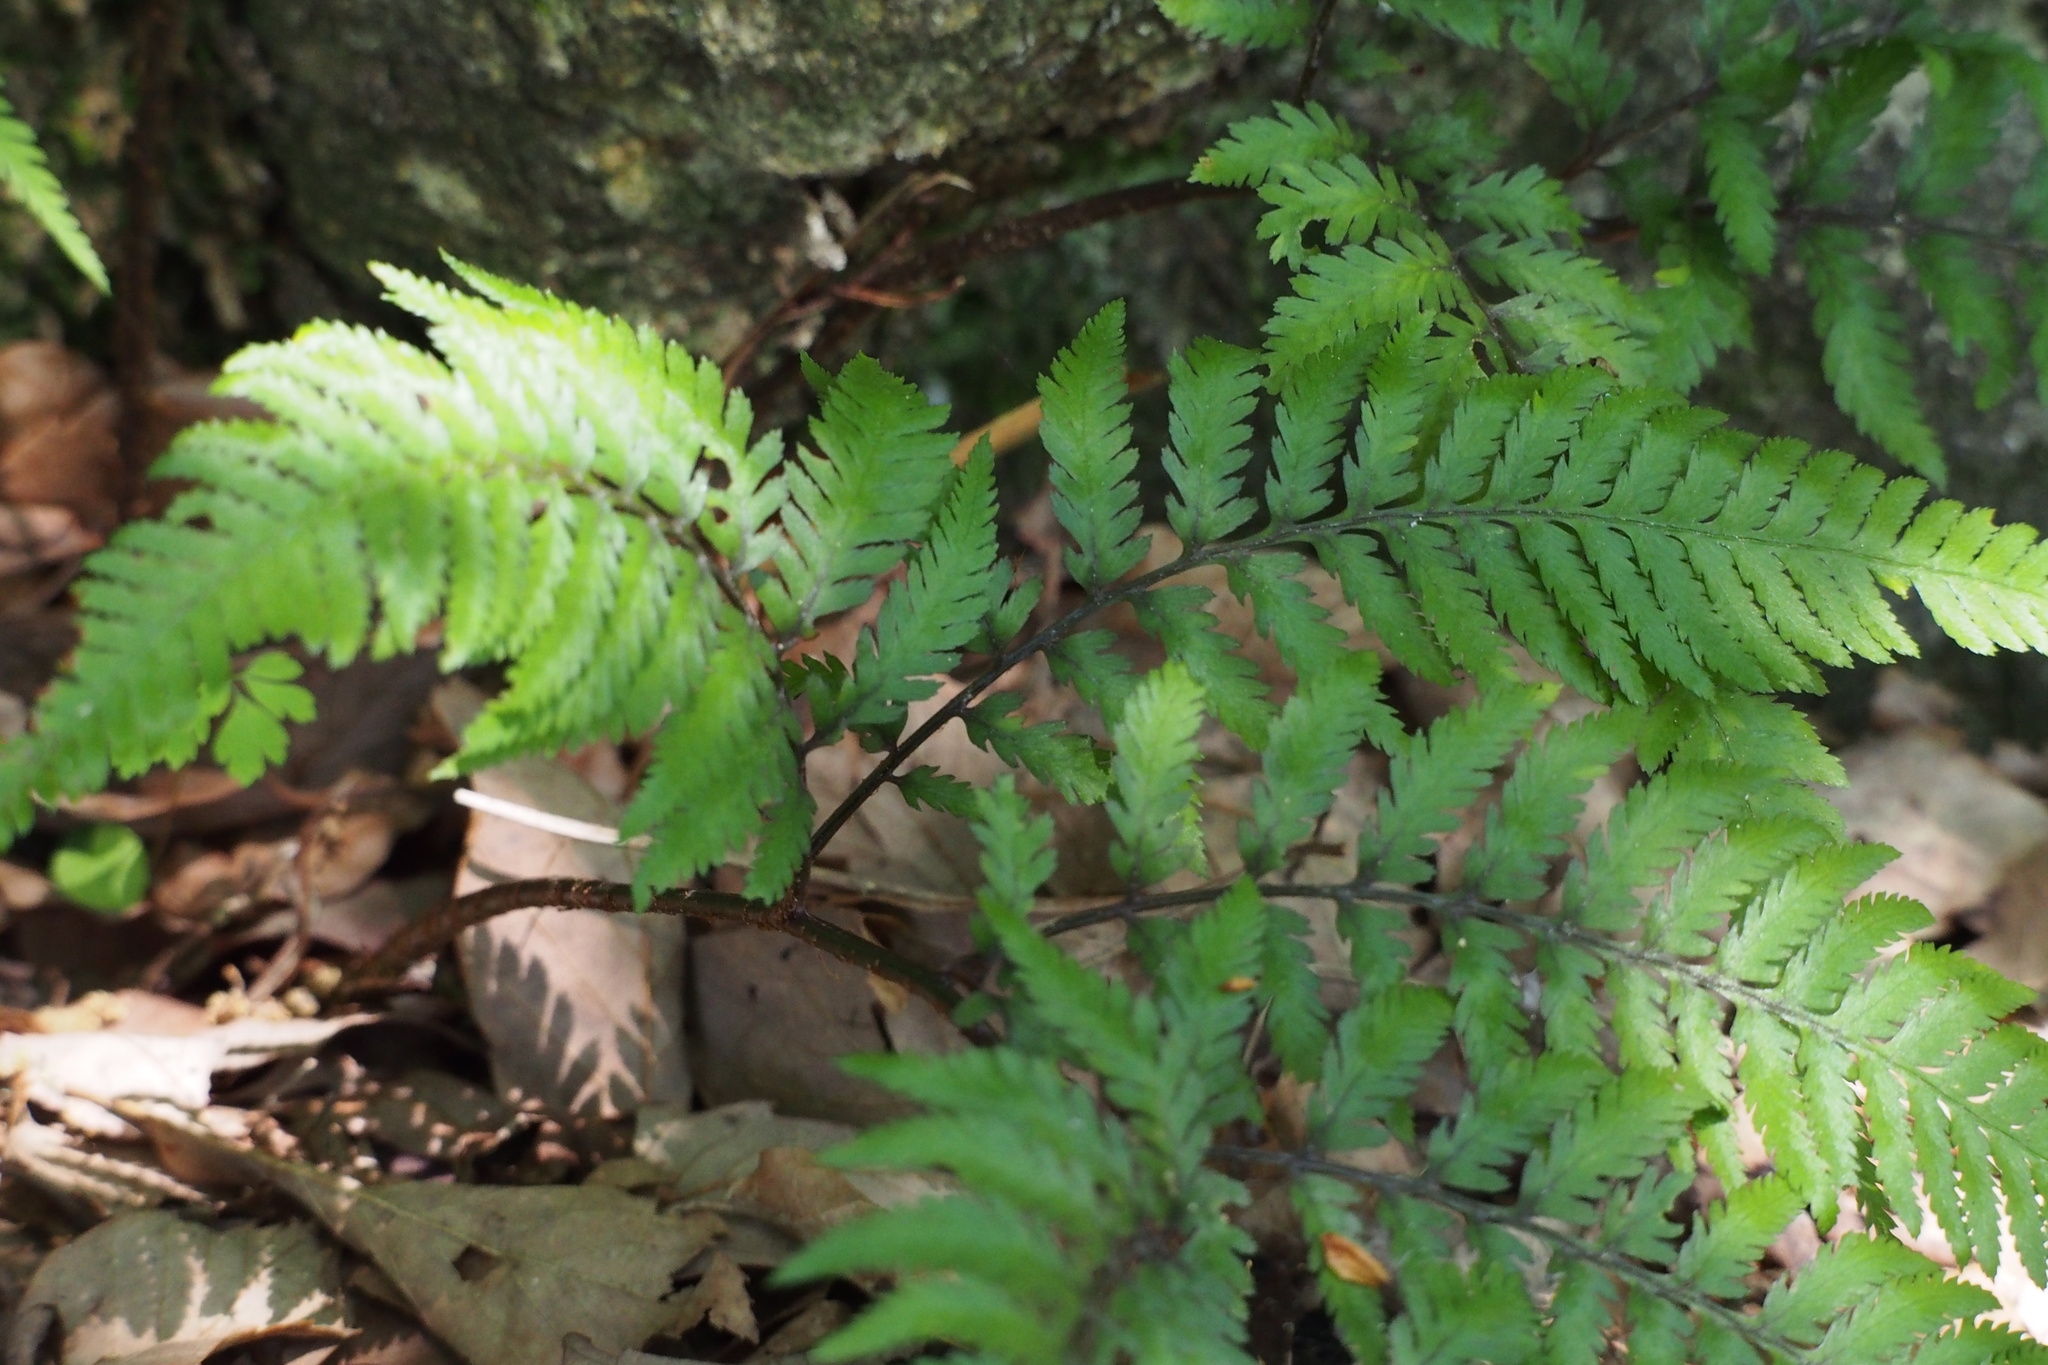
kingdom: Plantae
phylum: Tracheophyta
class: Polypodiopsida
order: Polypodiales
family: Athyriaceae
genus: Anisocampium
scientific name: Anisocampium niponicum
